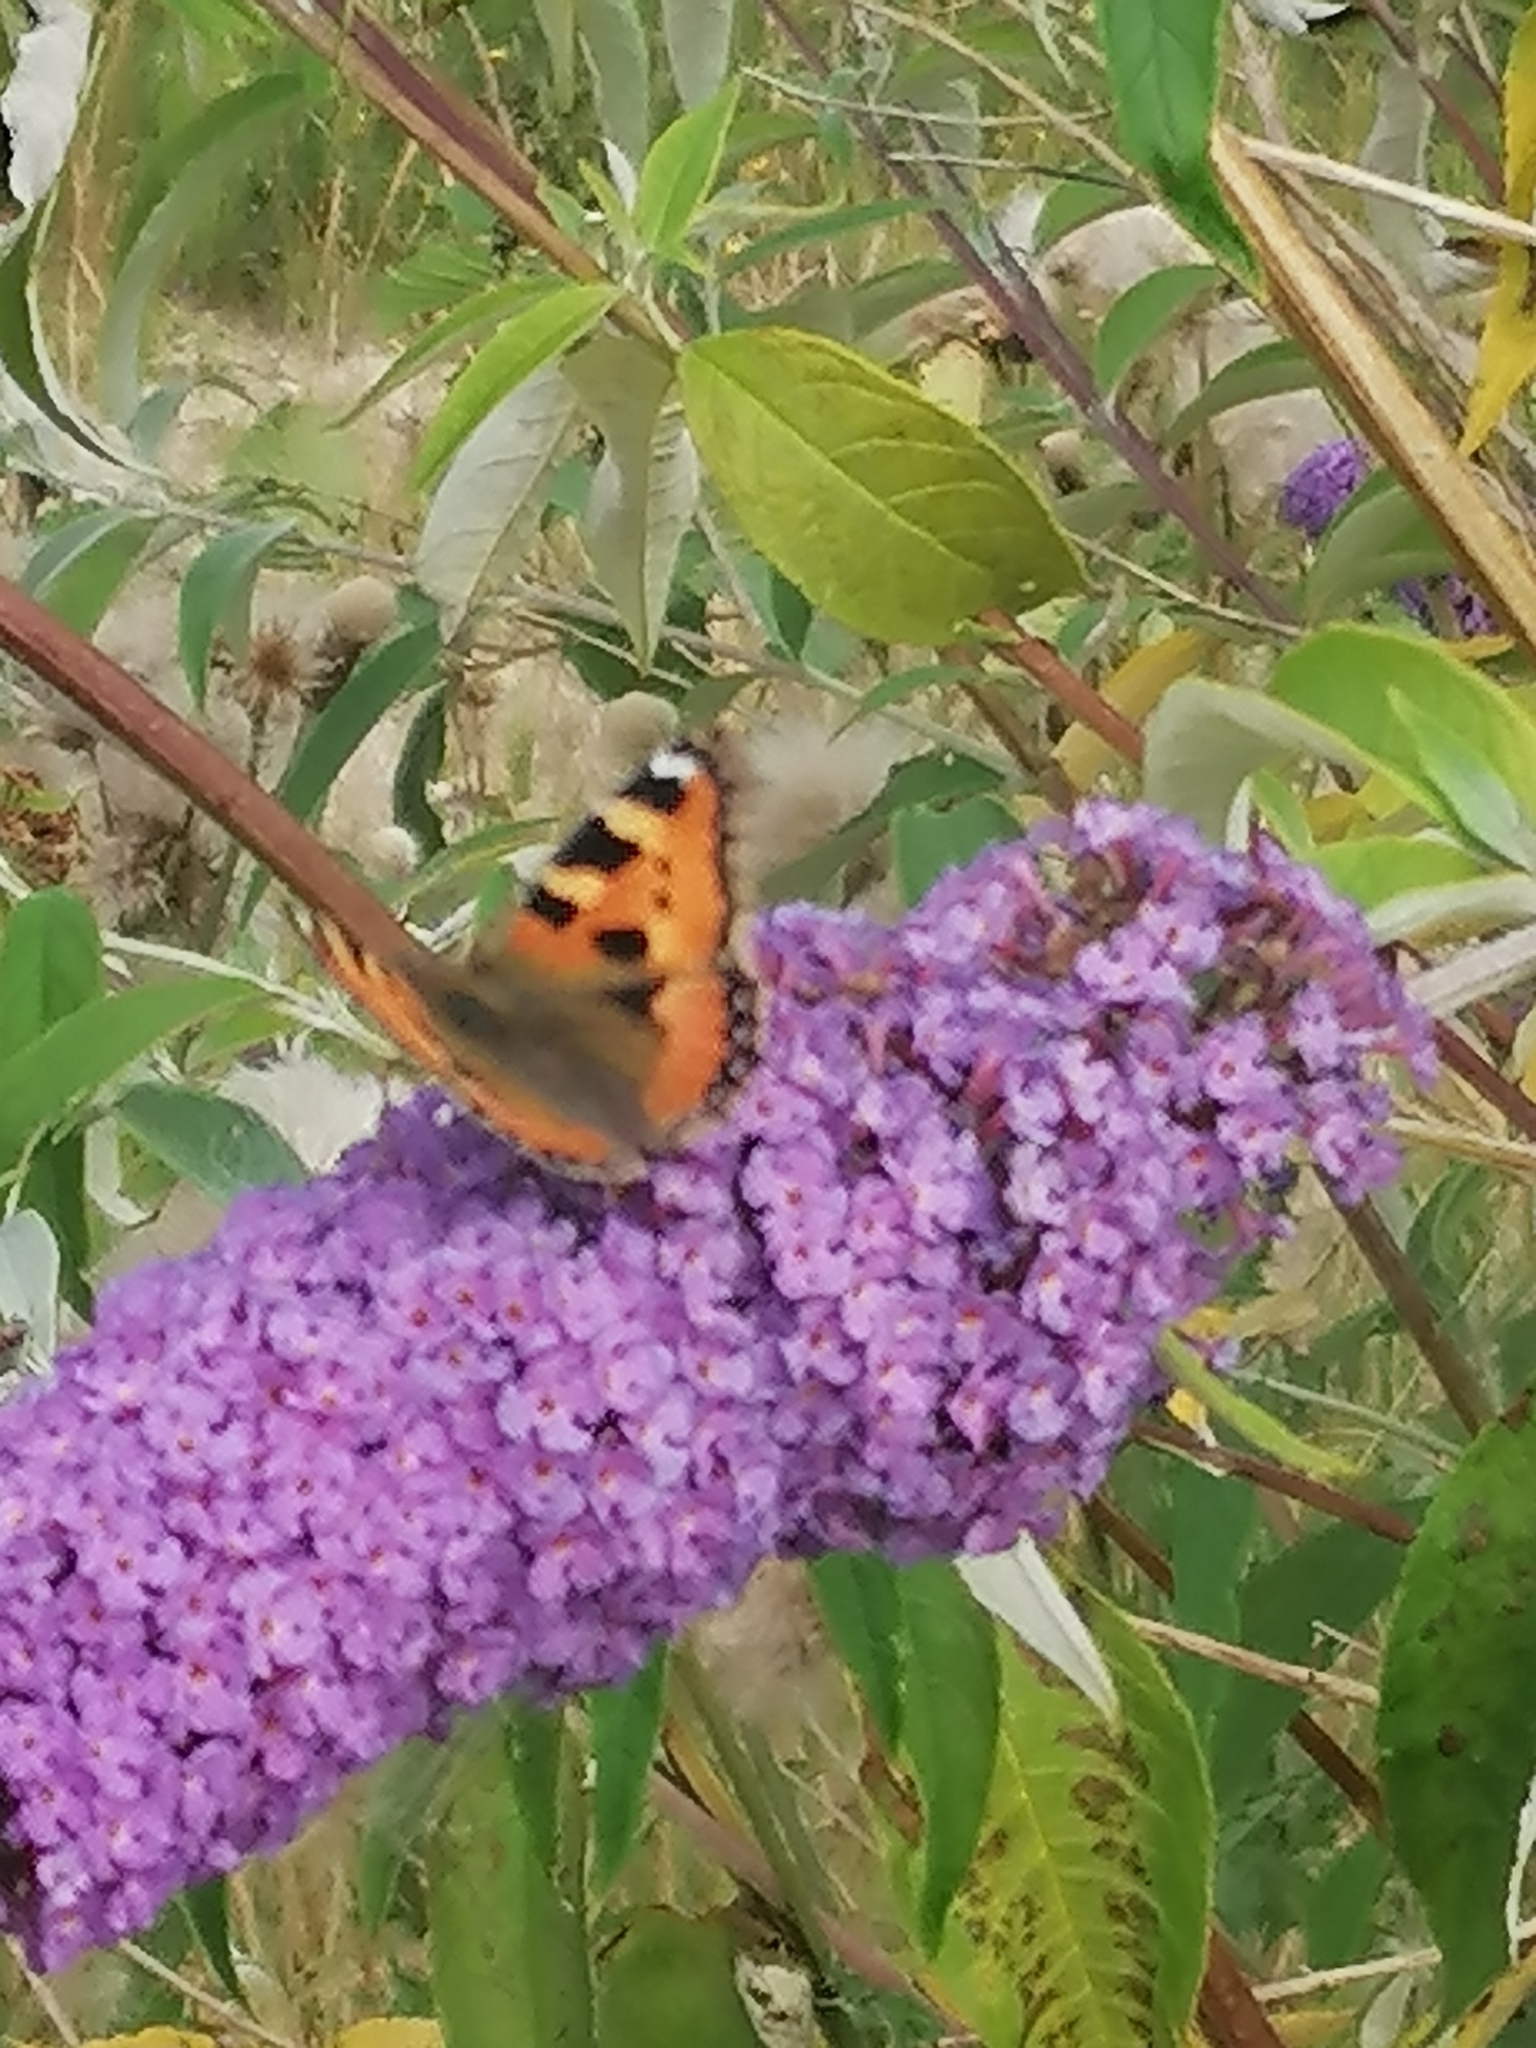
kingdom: Animalia
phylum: Arthropoda
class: Insecta
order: Lepidoptera
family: Nymphalidae
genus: Aglais
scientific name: Aglais urticae
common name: Small tortoiseshell
